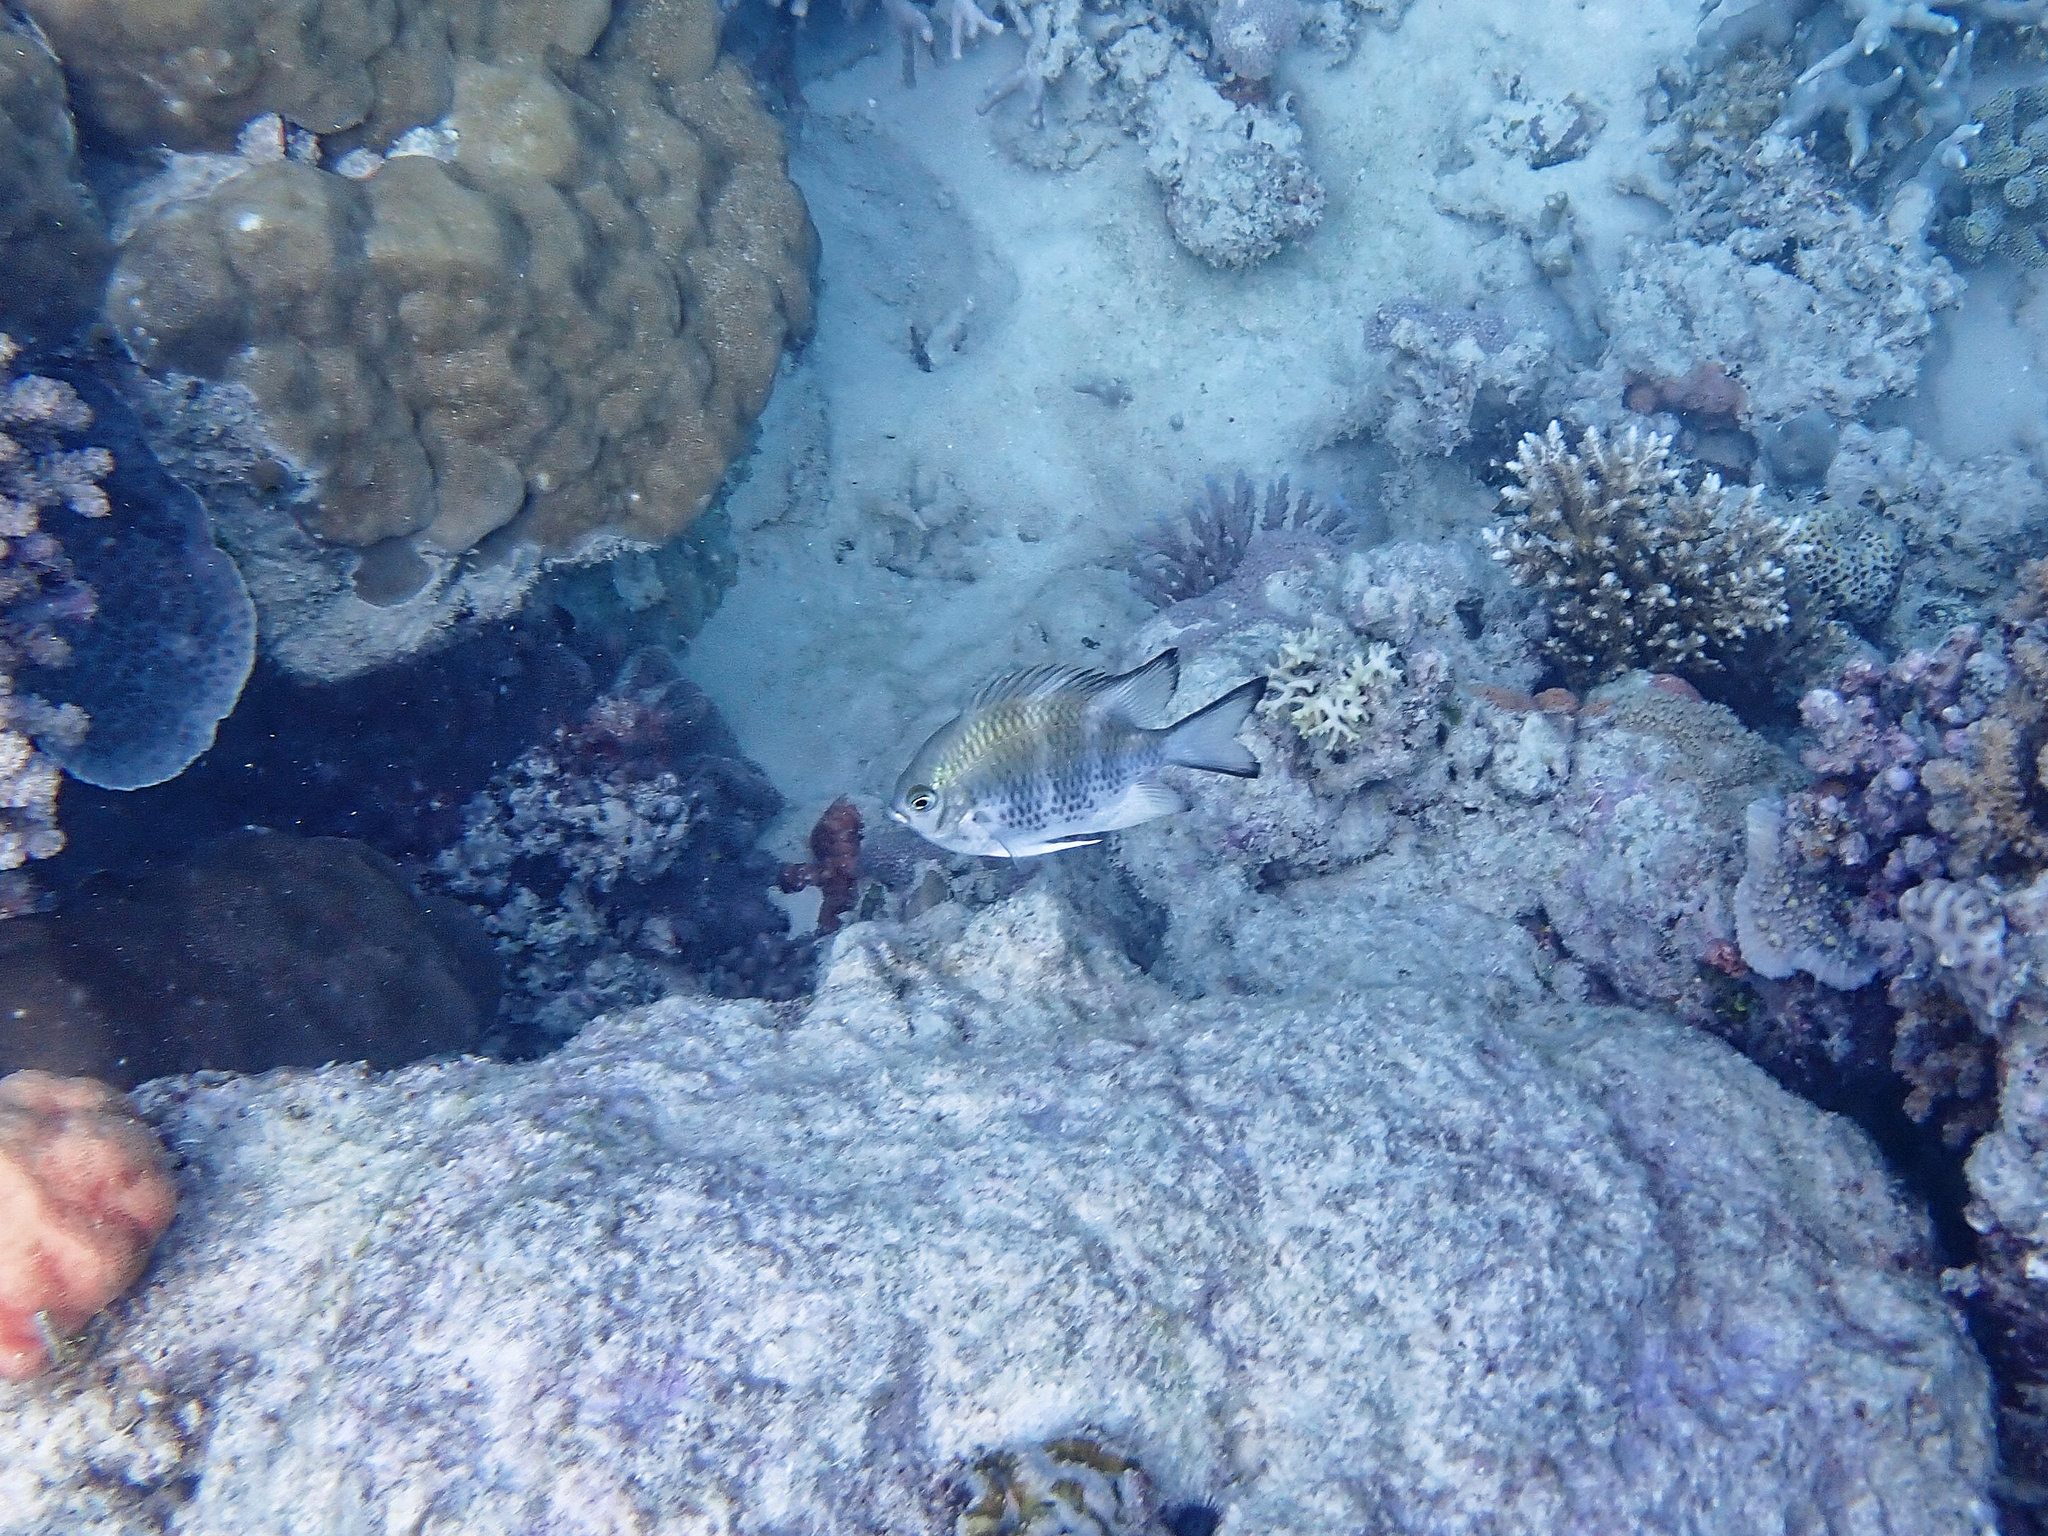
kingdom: Animalia
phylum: Chordata
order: Perciformes
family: Pomacentridae
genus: Amblyglyphidodon
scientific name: Amblyglyphidodon curacao
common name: Staghorn damsel
